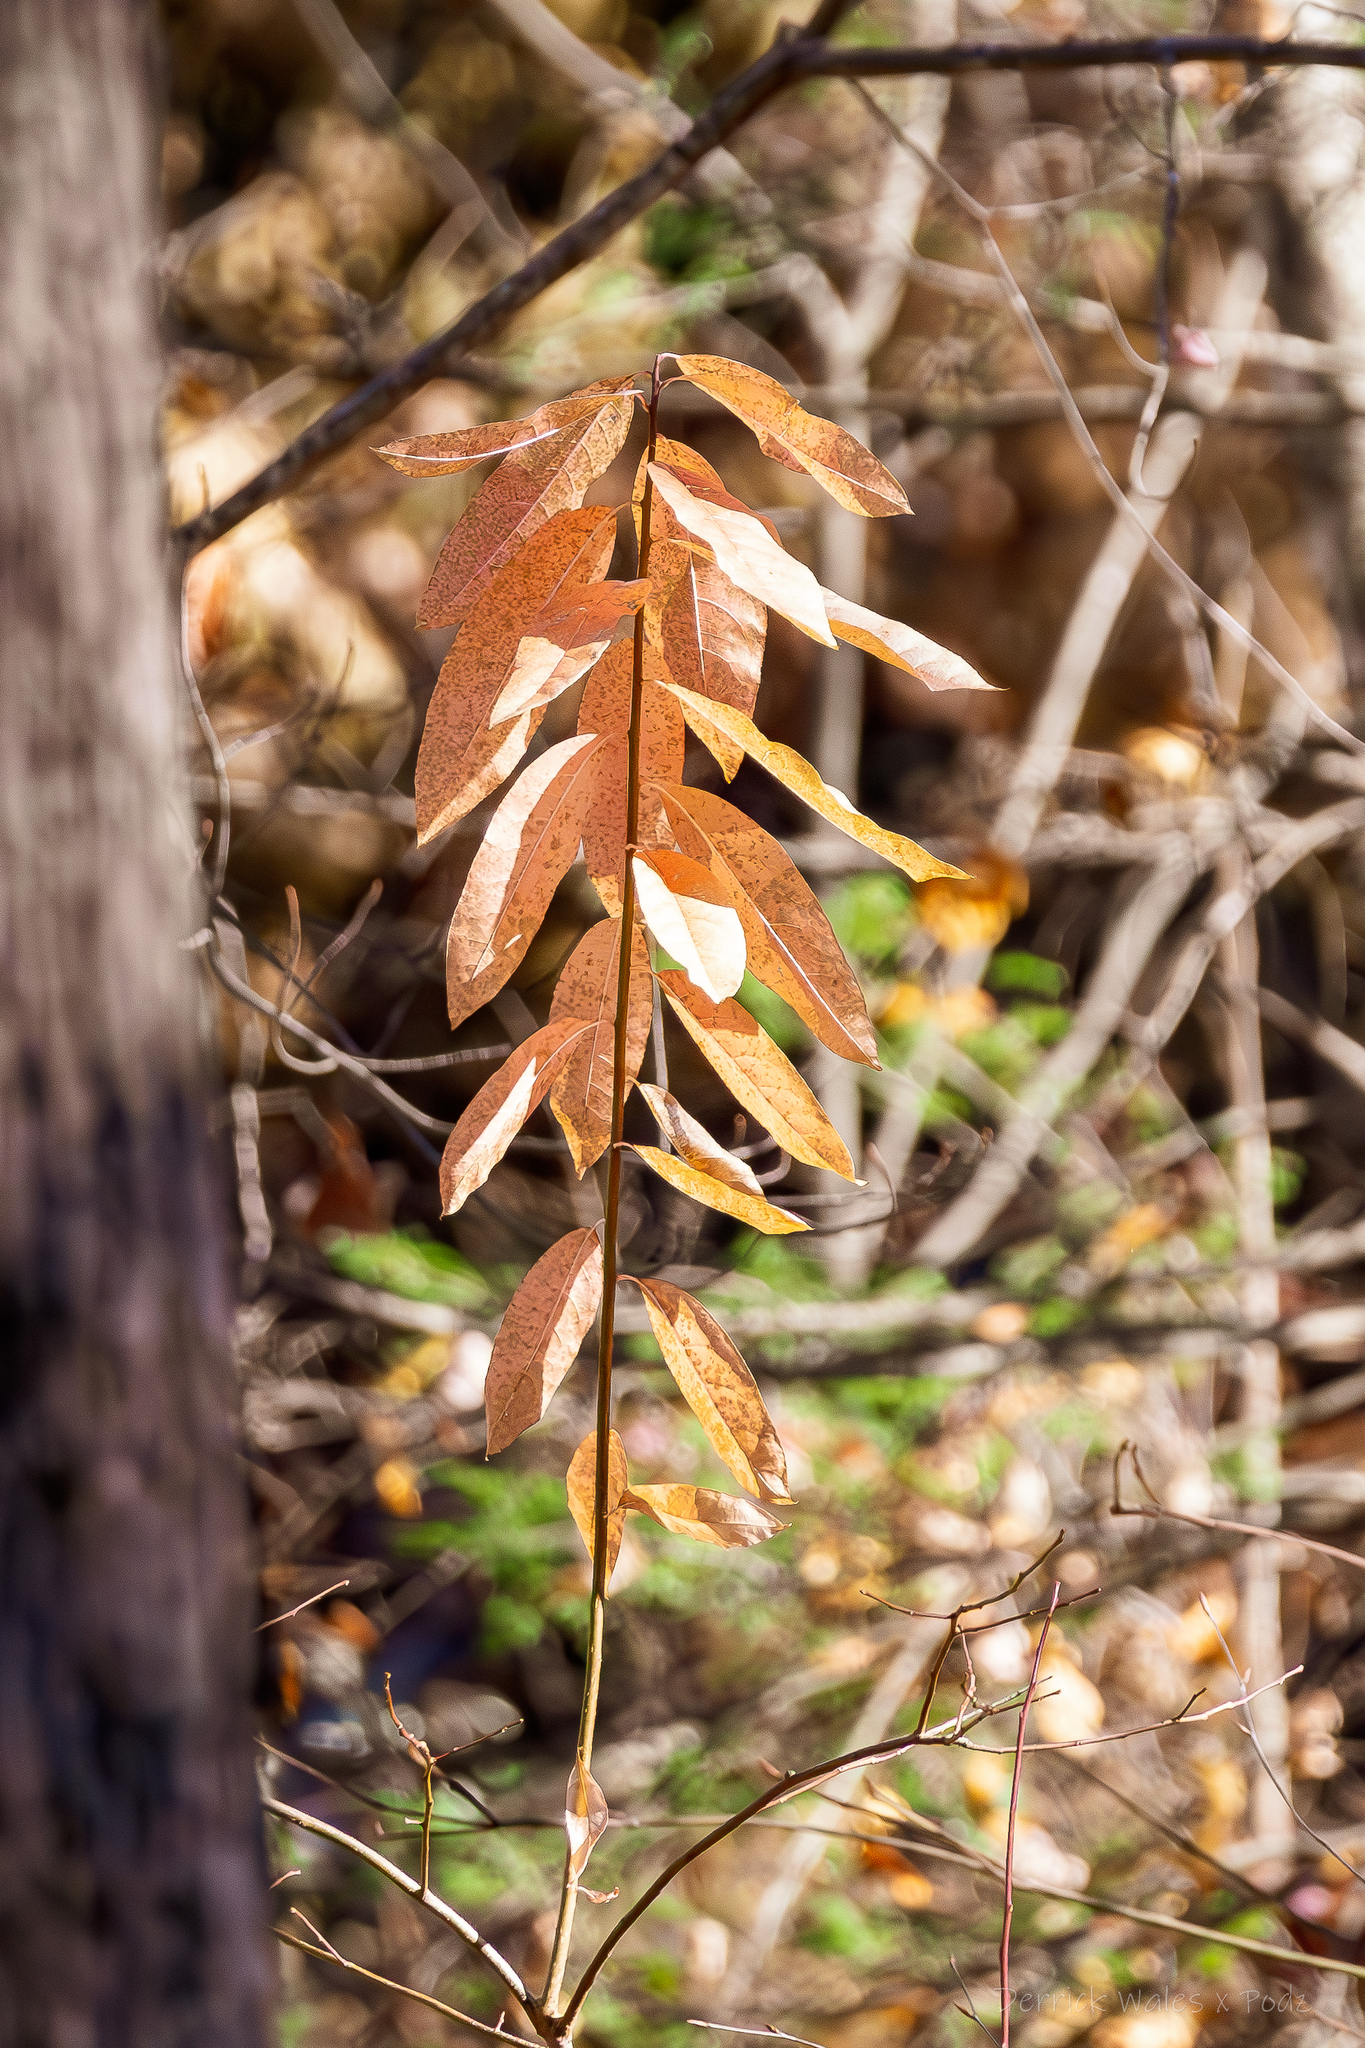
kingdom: Plantae
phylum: Tracheophyta
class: Magnoliopsida
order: Ericales
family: Ericaceae
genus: Oxydendrum
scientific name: Oxydendrum arboreum
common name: Sourwood
